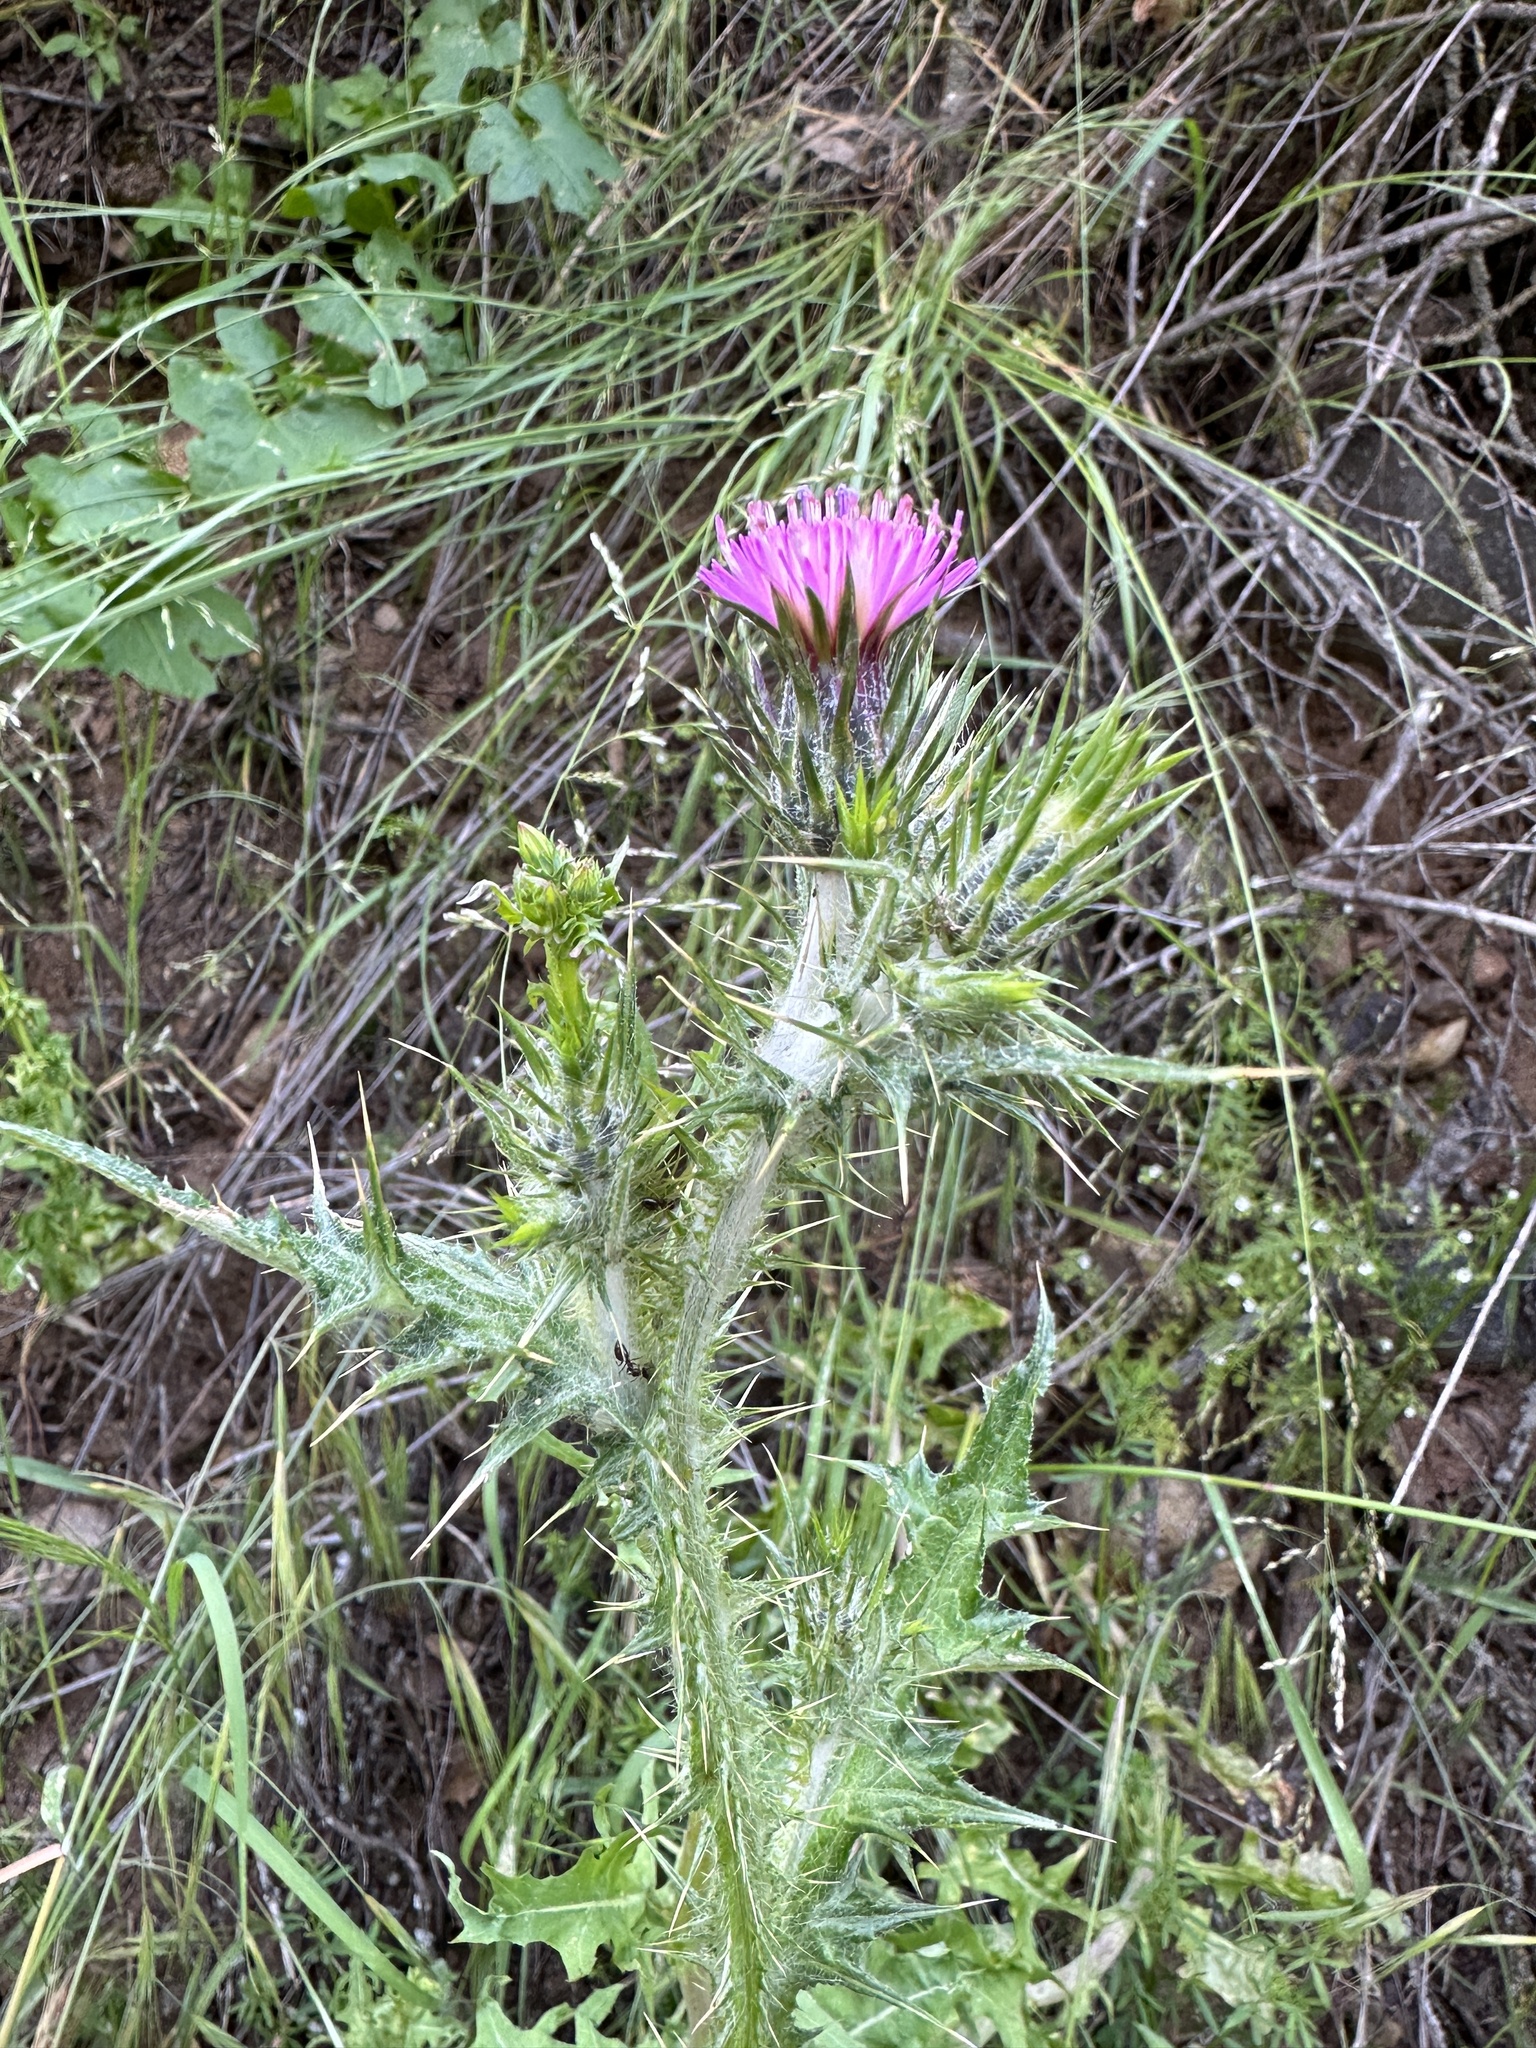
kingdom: Plantae
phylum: Tracheophyta
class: Magnoliopsida
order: Asterales
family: Asteraceae
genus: Carduus
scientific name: Carduus pycnocephalus
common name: Plymouth thistle
